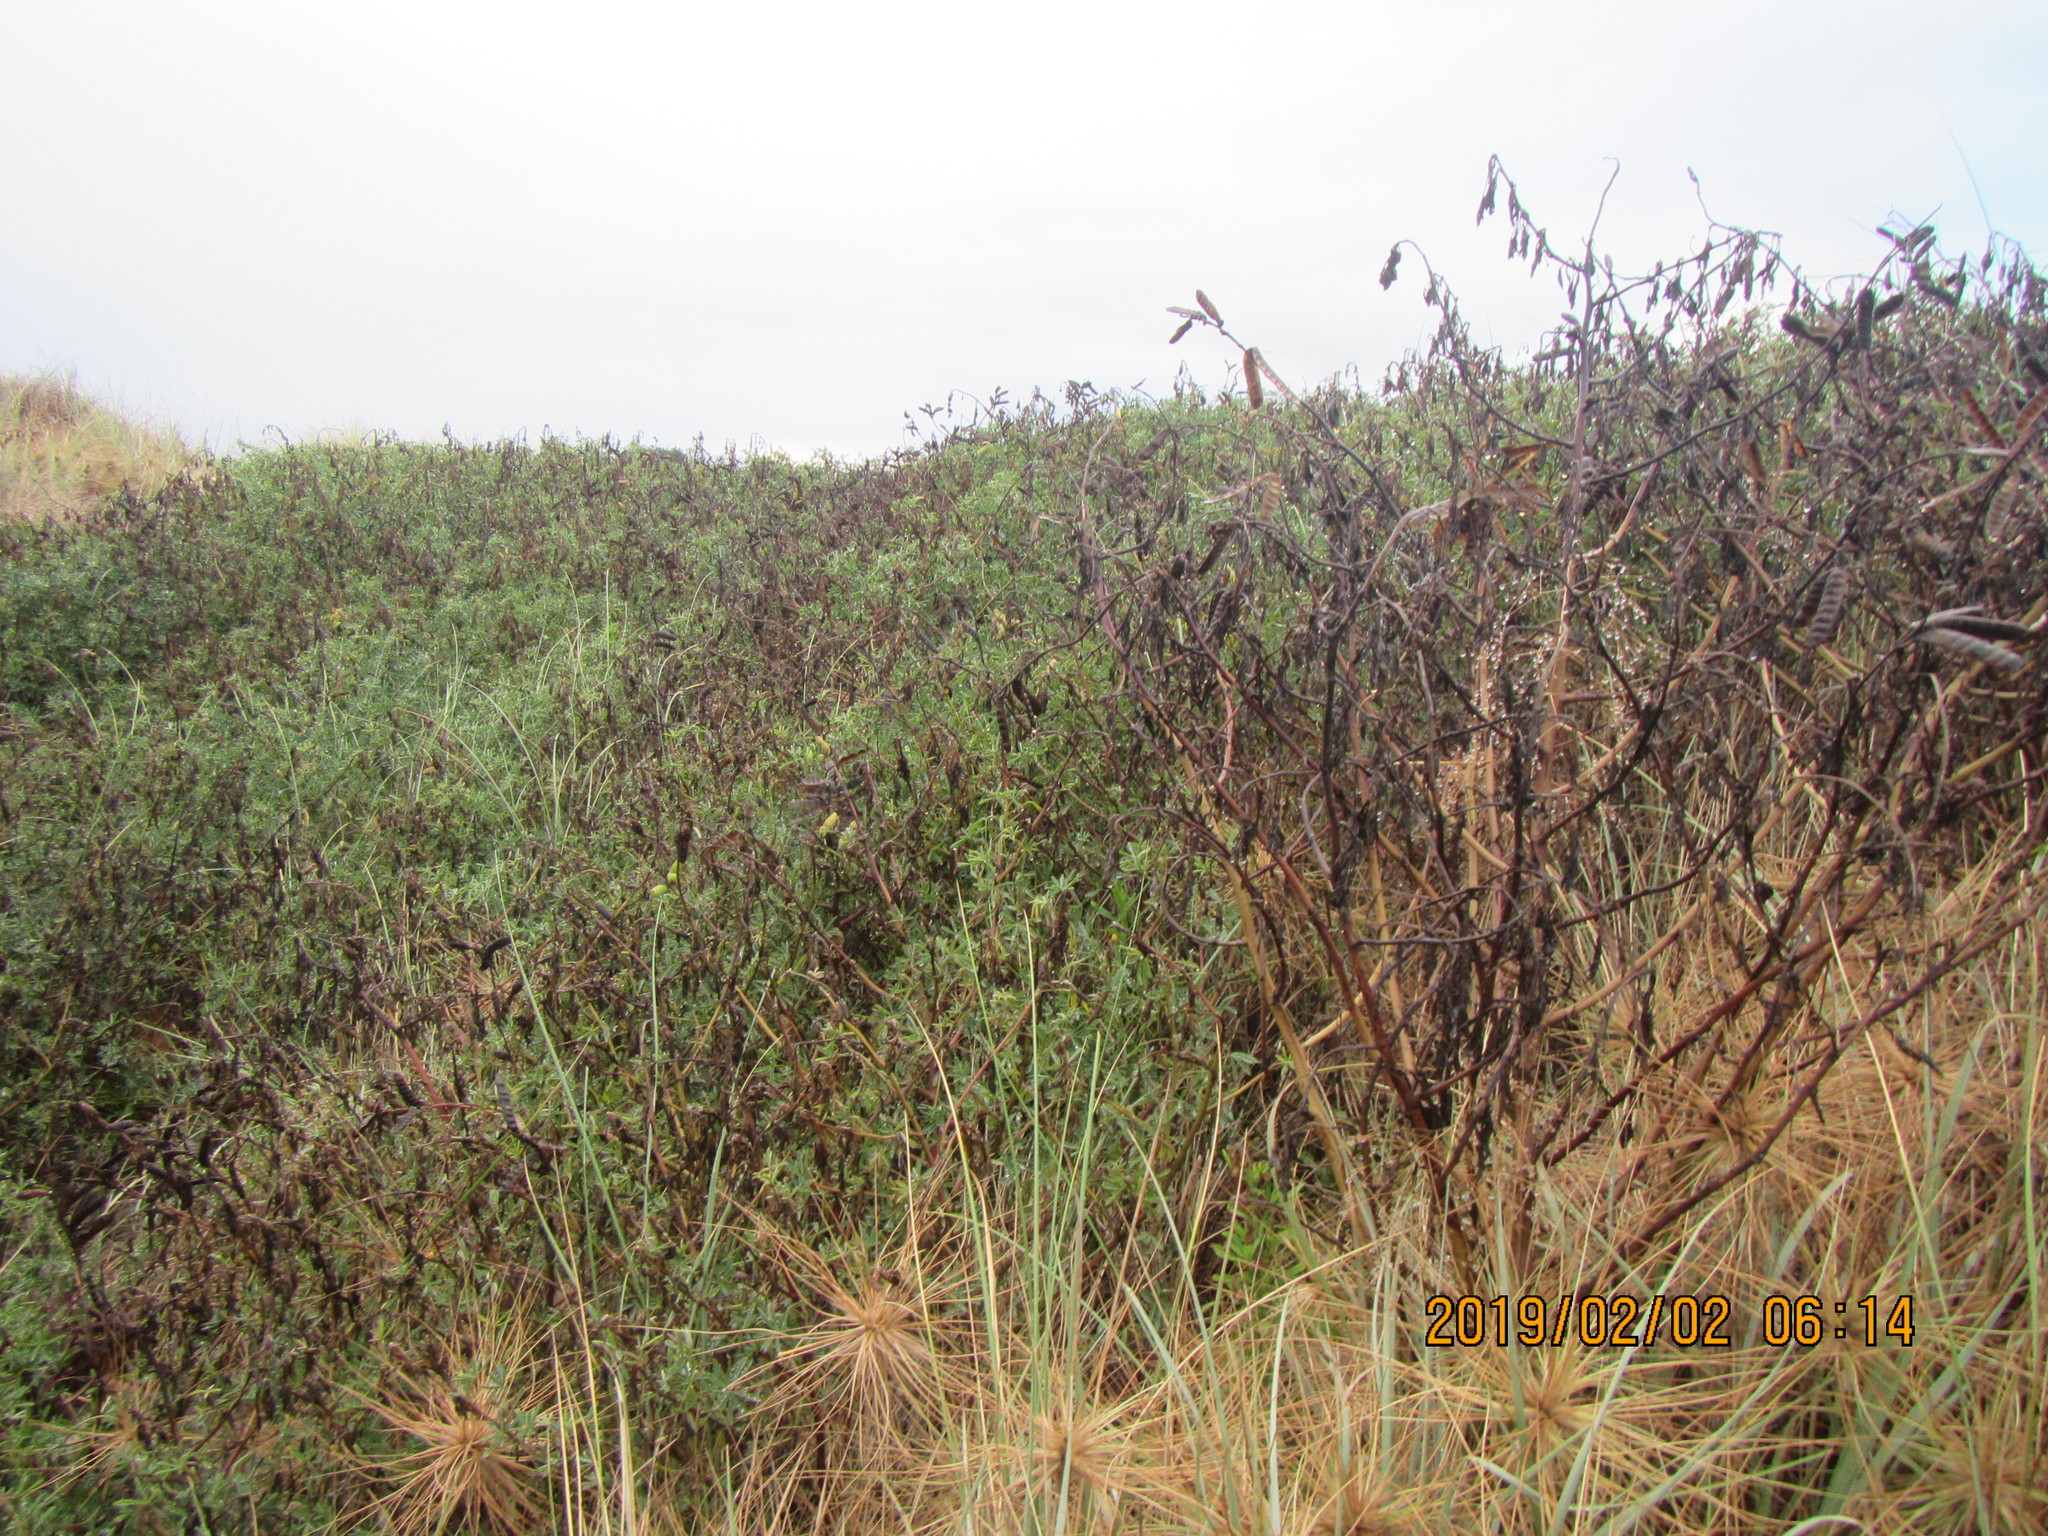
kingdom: Plantae
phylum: Tracheophyta
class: Magnoliopsida
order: Fabales
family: Fabaceae
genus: Lupinus
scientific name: Lupinus arboreus
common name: Yellow bush lupine
